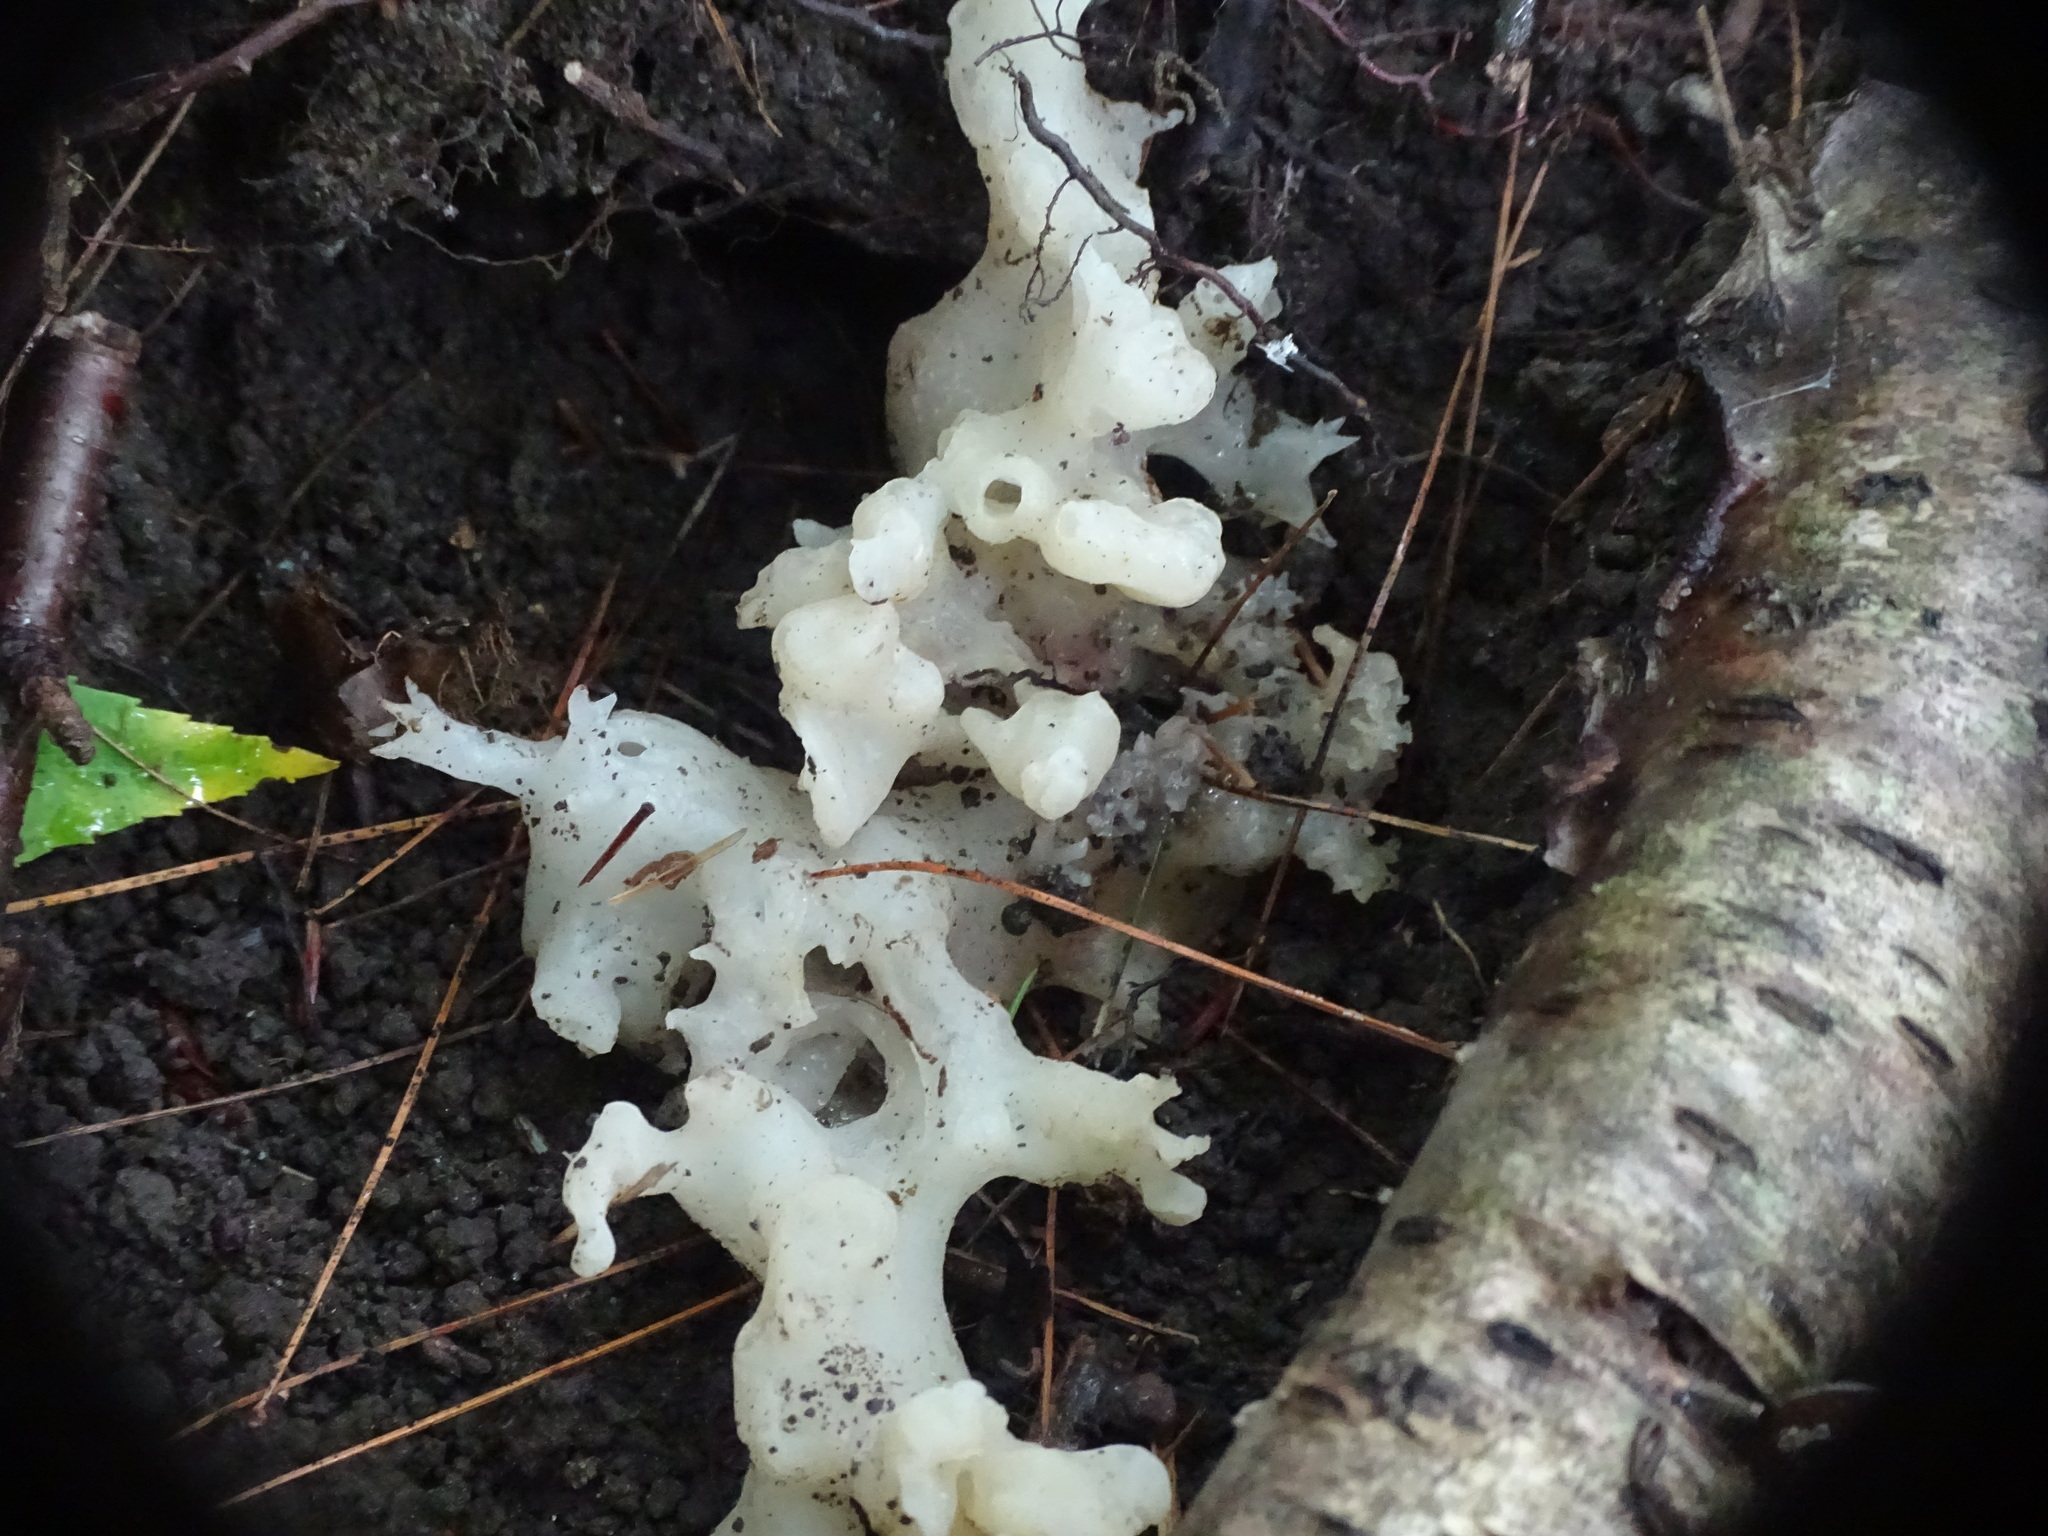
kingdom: Fungi
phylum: Basidiomycota
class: Agaricomycetes
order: Sebacinales
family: Sebacinaceae
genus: Sebacina
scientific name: Sebacina sparassoidea
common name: White coral jelly fungus
